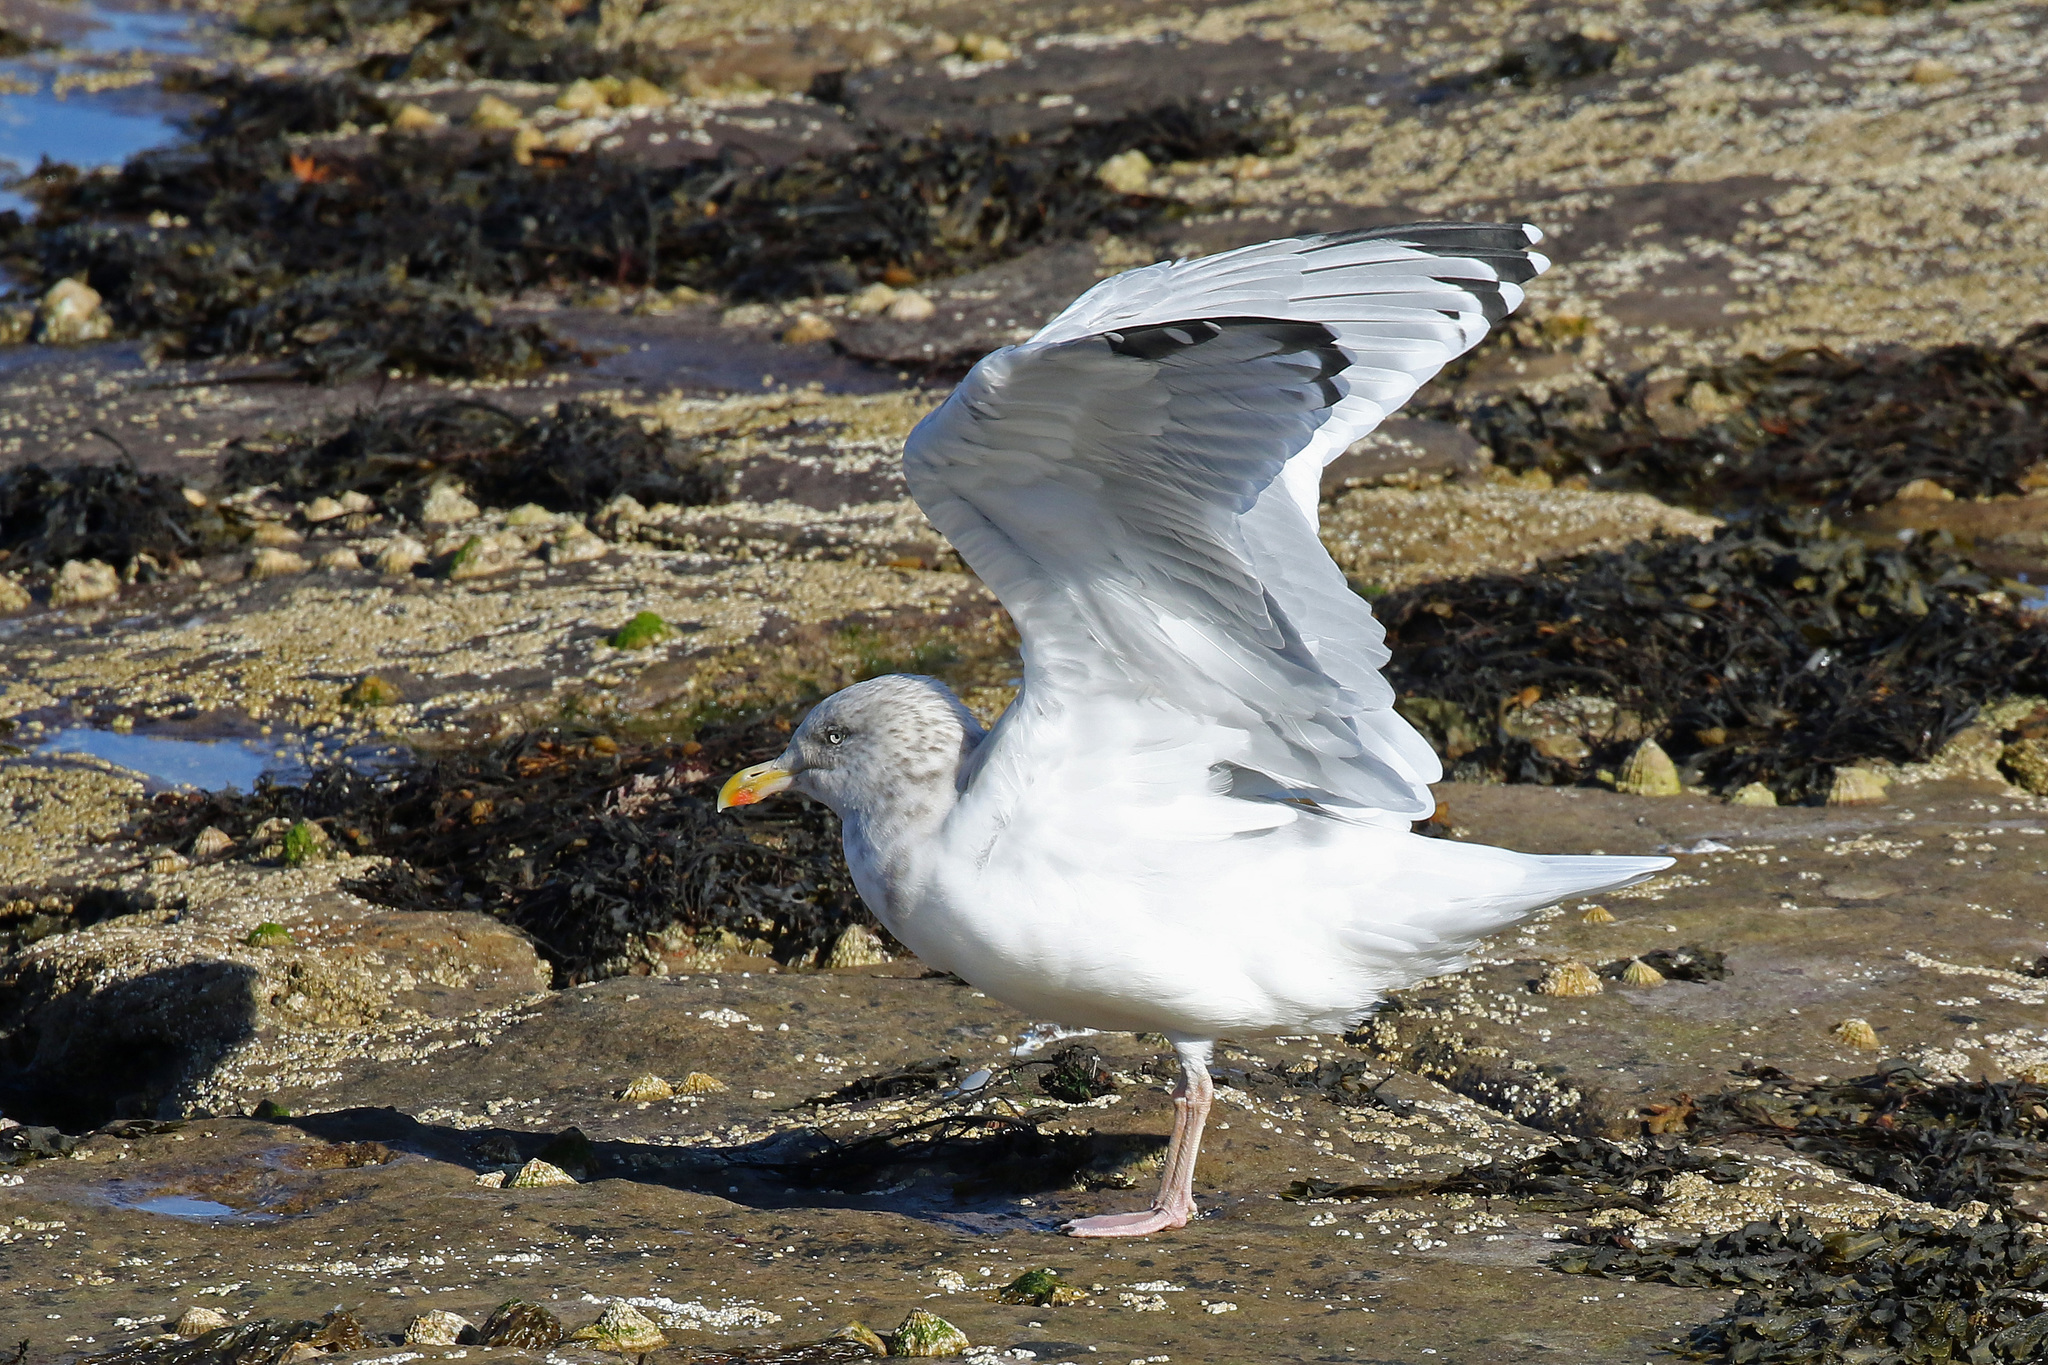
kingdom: Animalia
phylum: Chordata
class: Aves
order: Charadriiformes
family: Laridae
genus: Larus
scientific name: Larus argentatus
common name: Herring gull
